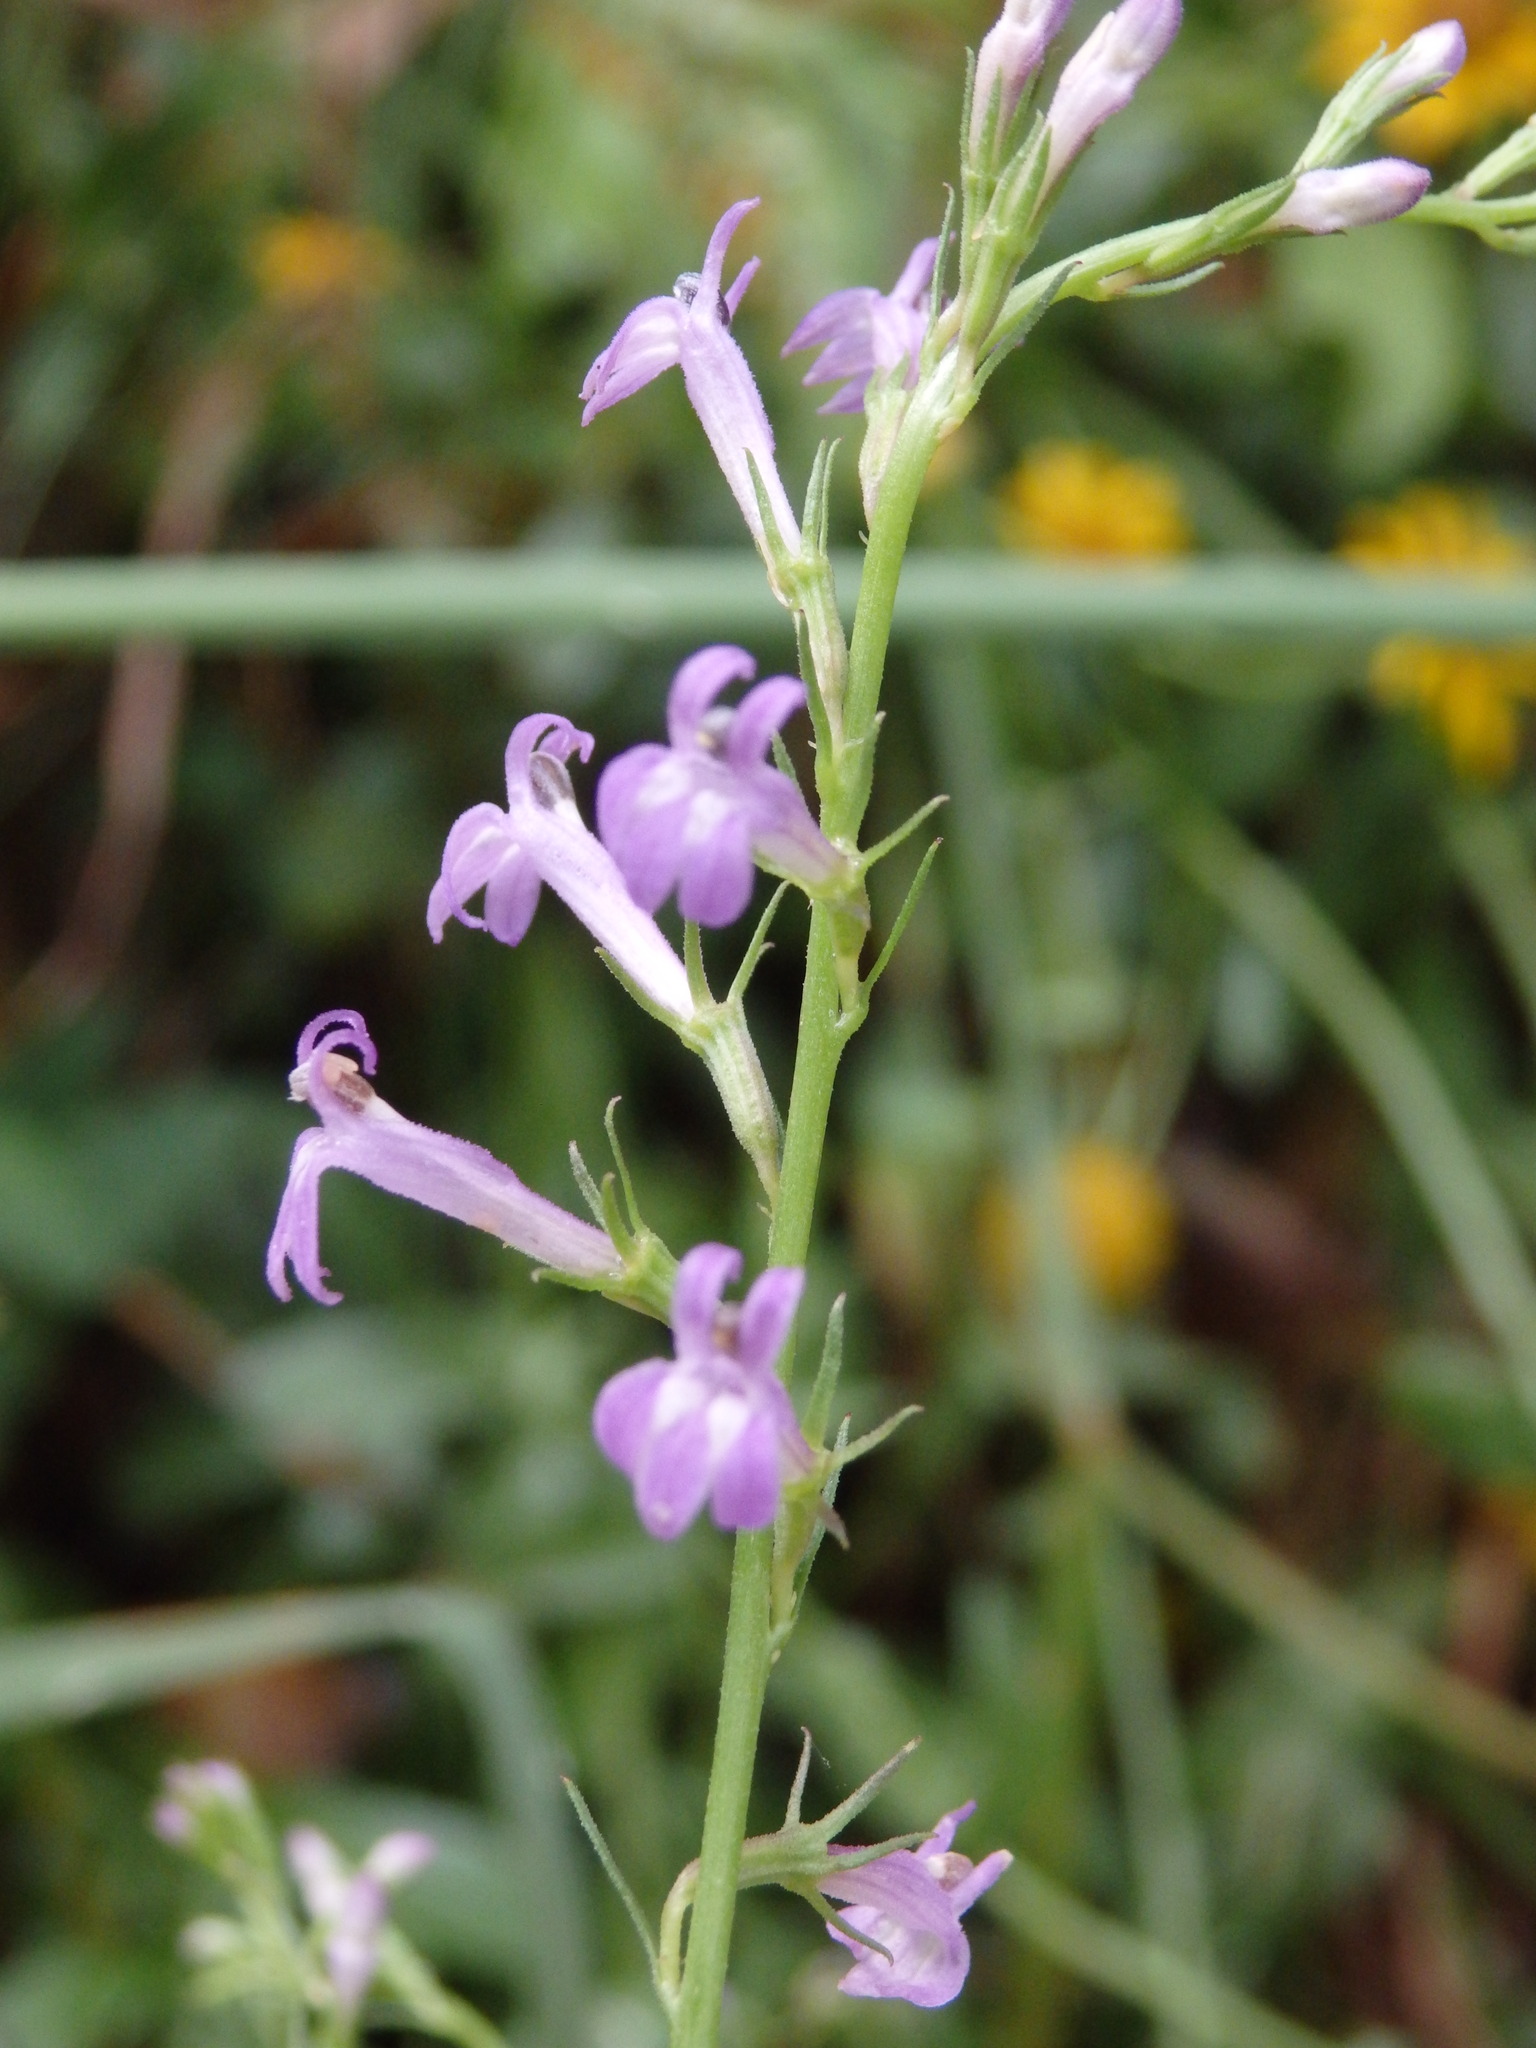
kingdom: Plantae
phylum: Tracheophyta
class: Magnoliopsida
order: Asterales
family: Campanulaceae
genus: Lobelia
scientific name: Lobelia urens
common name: Heath lobelia
